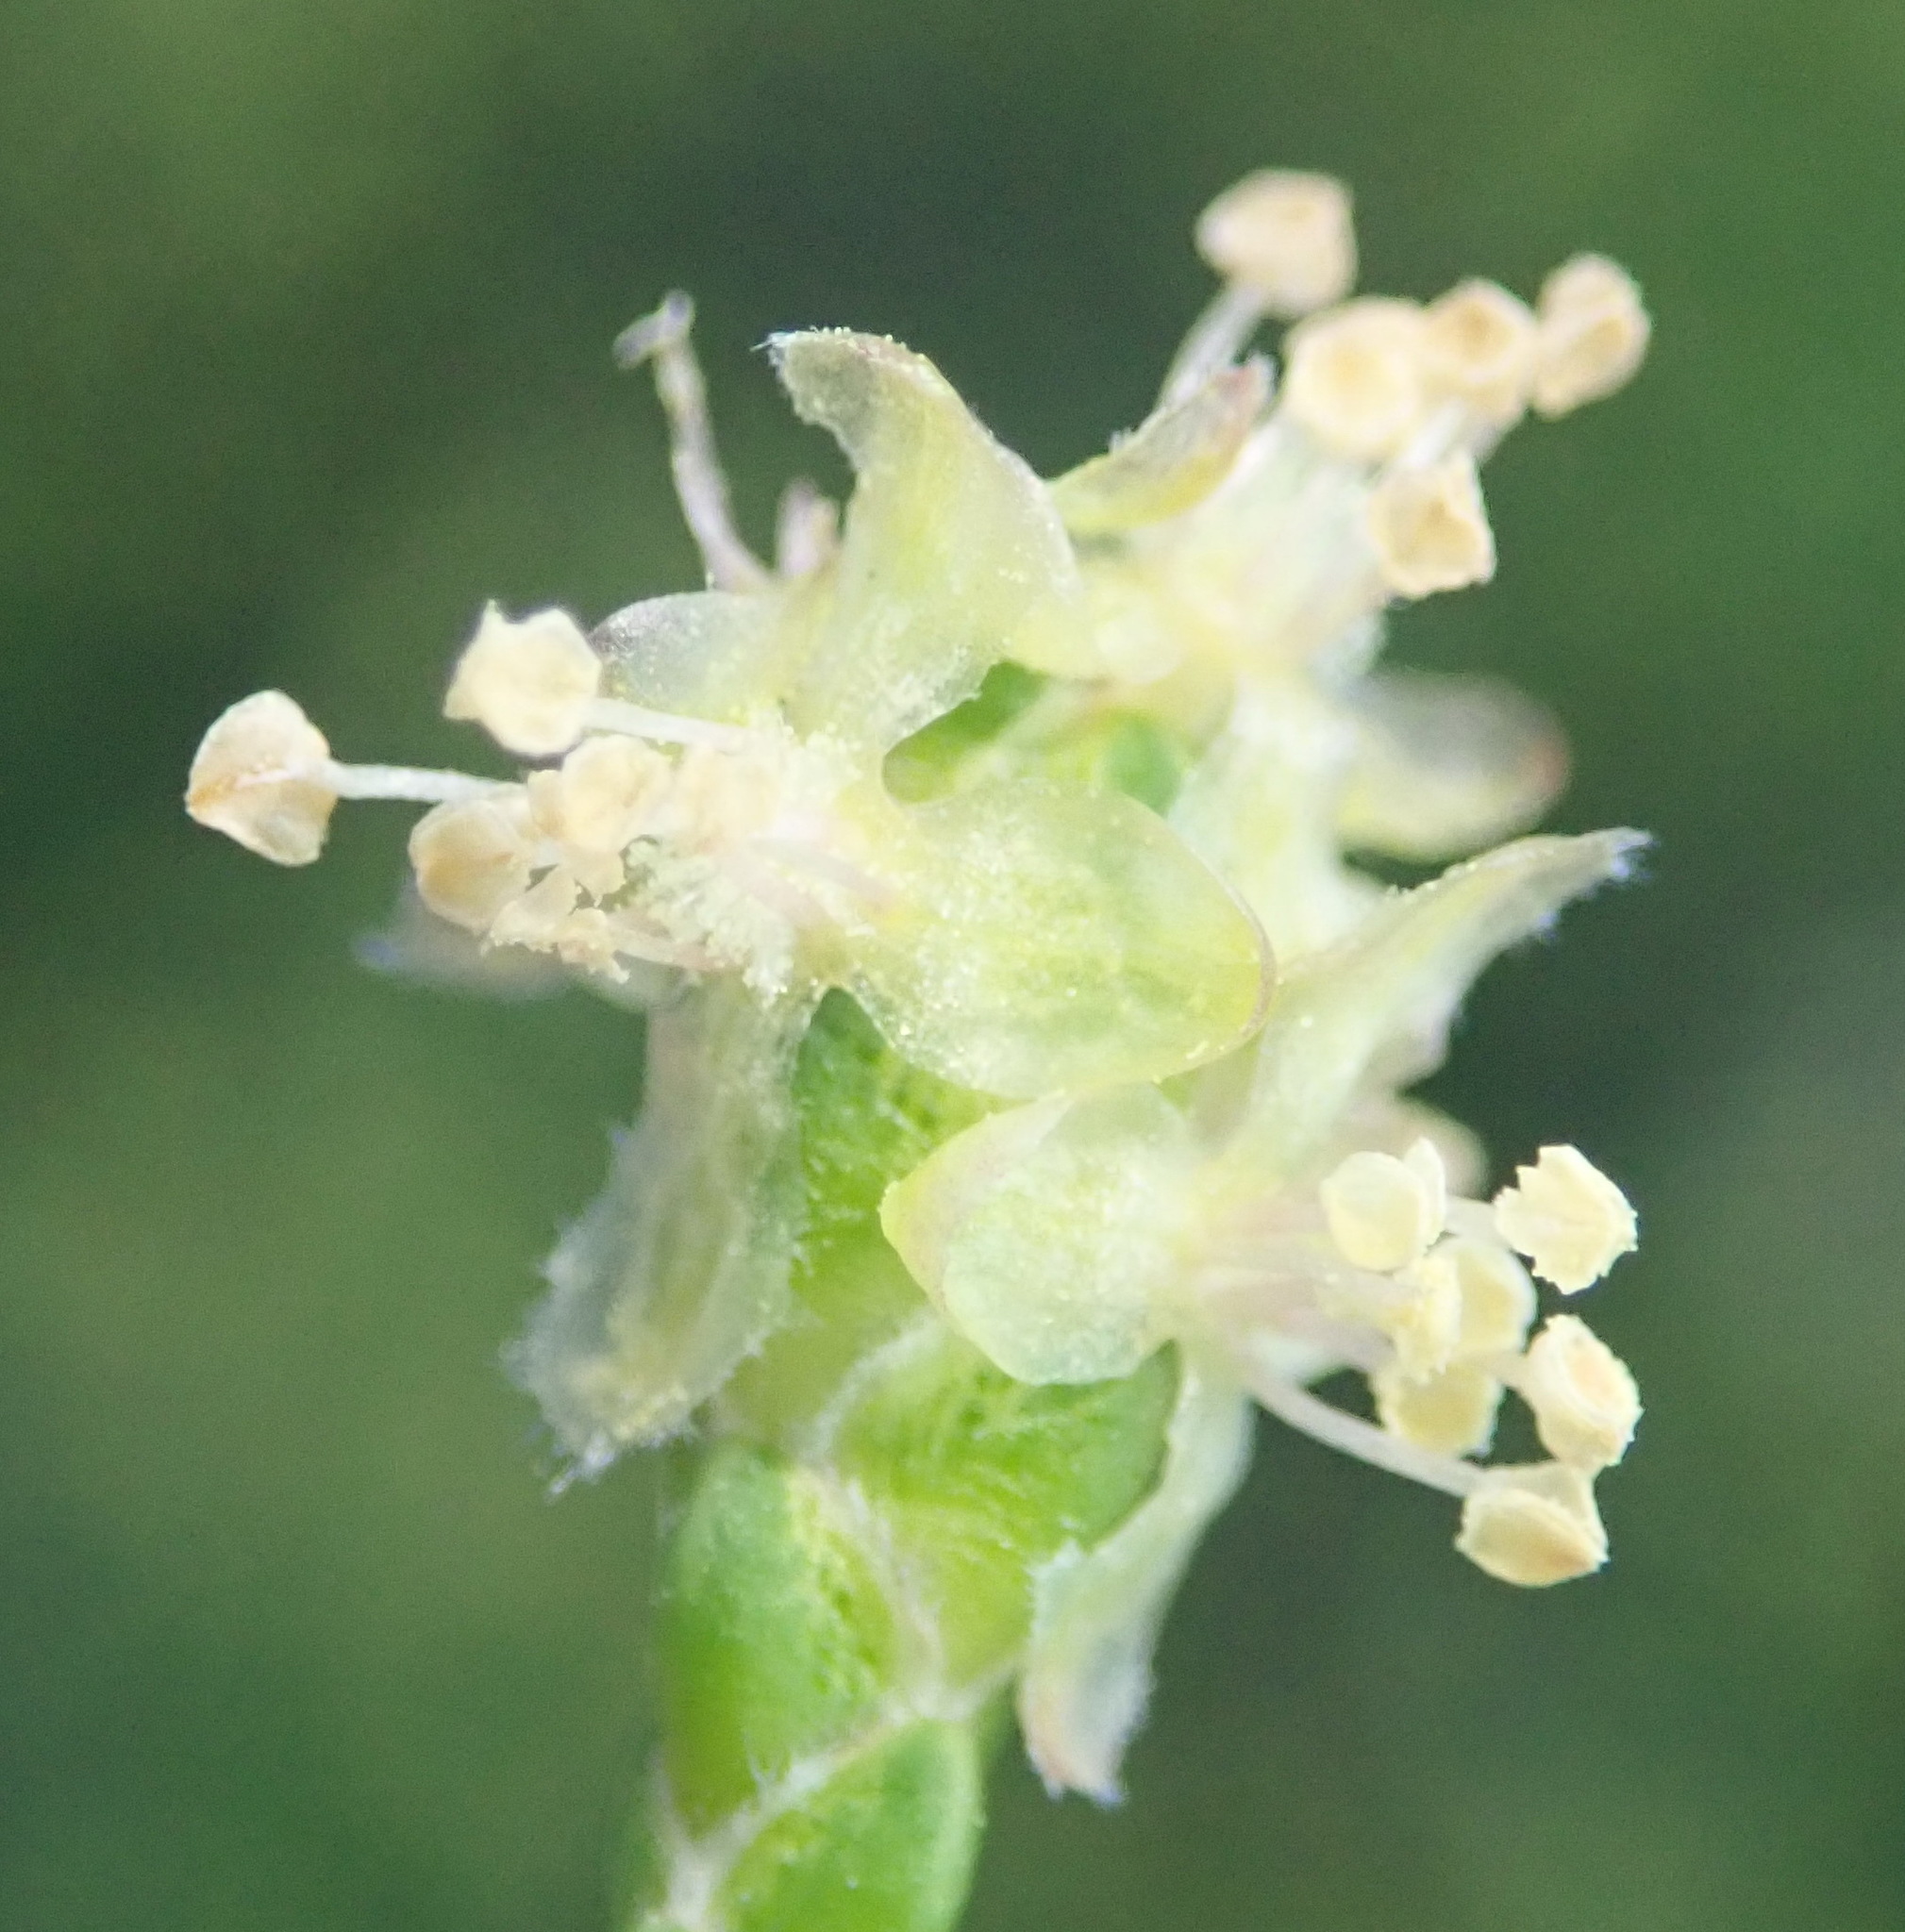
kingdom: Plantae
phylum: Tracheophyta
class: Magnoliopsida
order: Malvales
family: Thymelaeaceae
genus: Passerina
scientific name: Passerina paleacea
